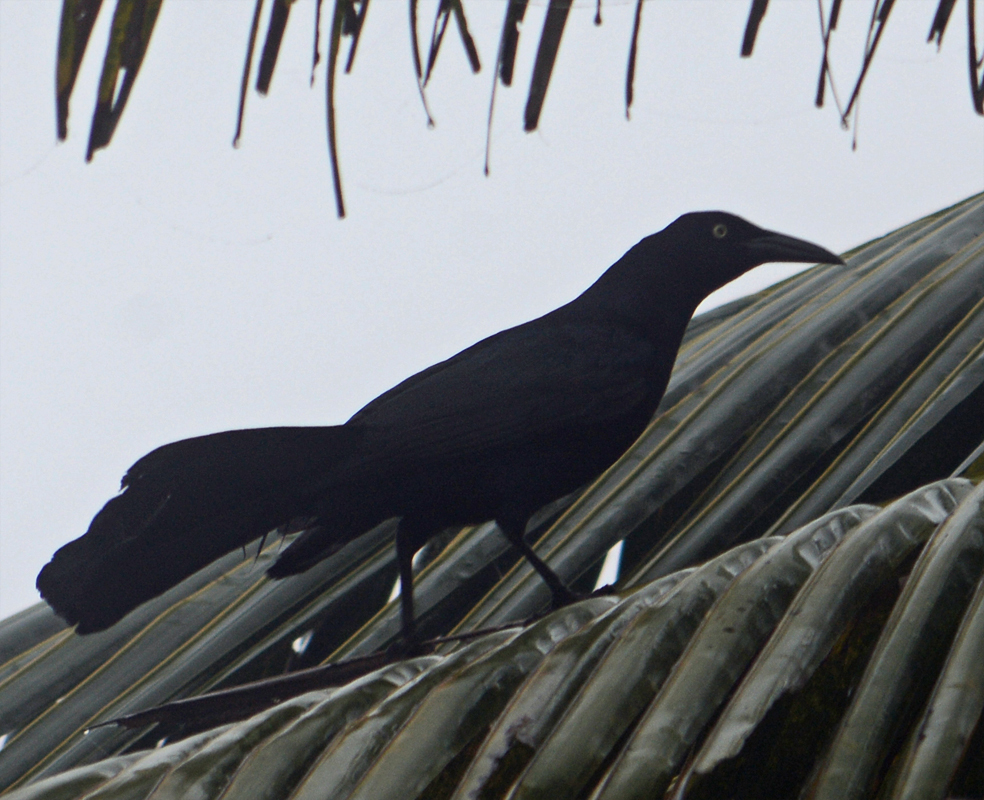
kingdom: Animalia
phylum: Chordata
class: Aves
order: Passeriformes
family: Icteridae
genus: Quiscalus
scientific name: Quiscalus mexicanus
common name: Great-tailed grackle
